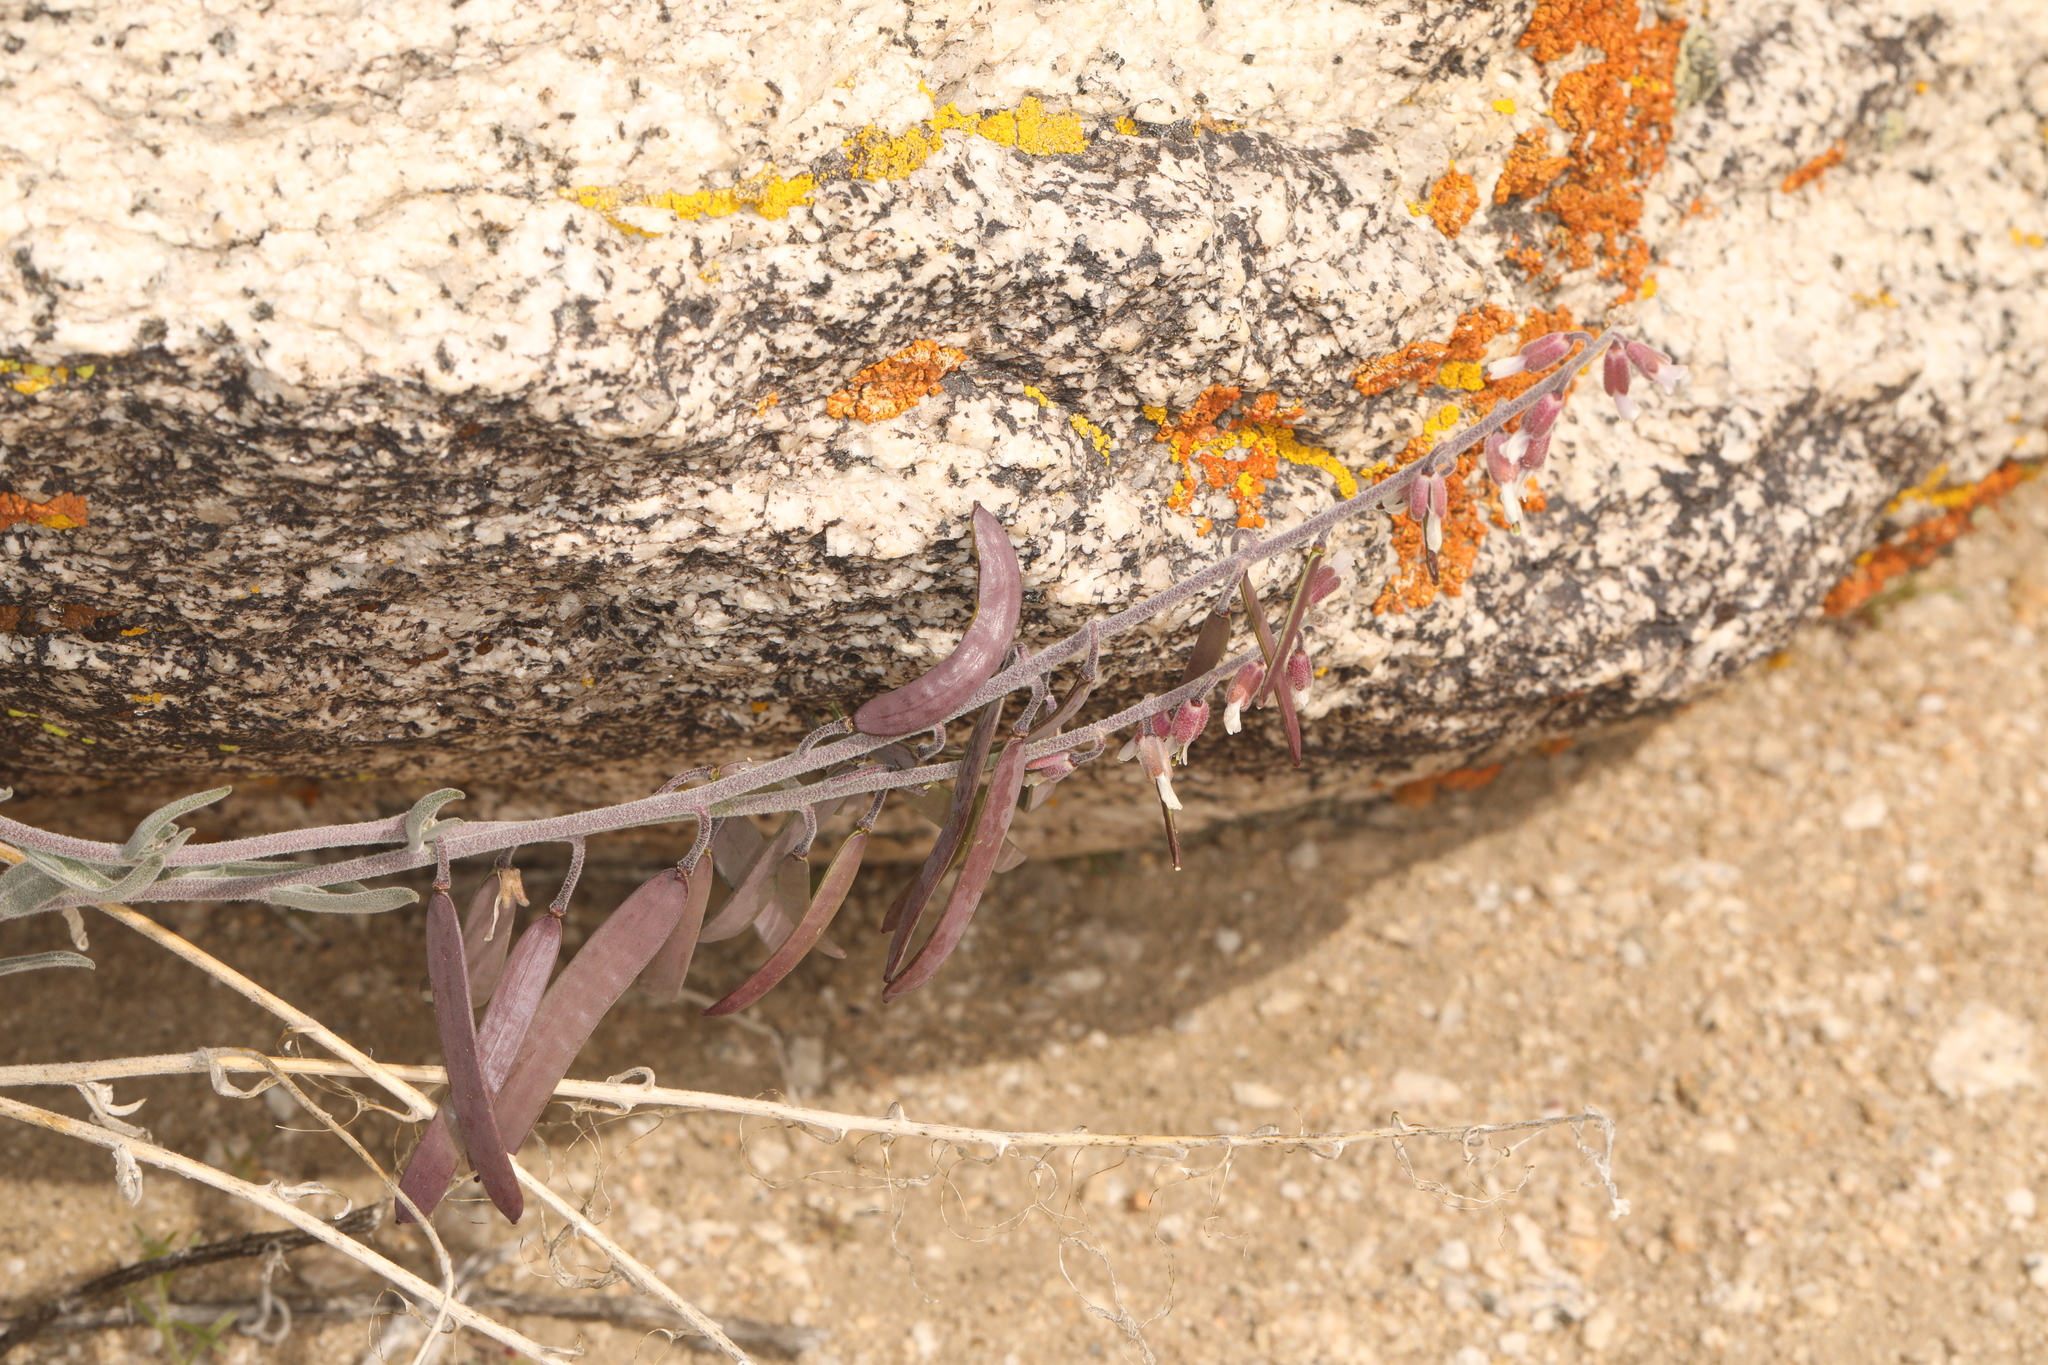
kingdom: Plantae
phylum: Tracheophyta
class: Magnoliopsida
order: Brassicales
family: Brassicaceae
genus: Boechera
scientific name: Boechera glaucovalvula
